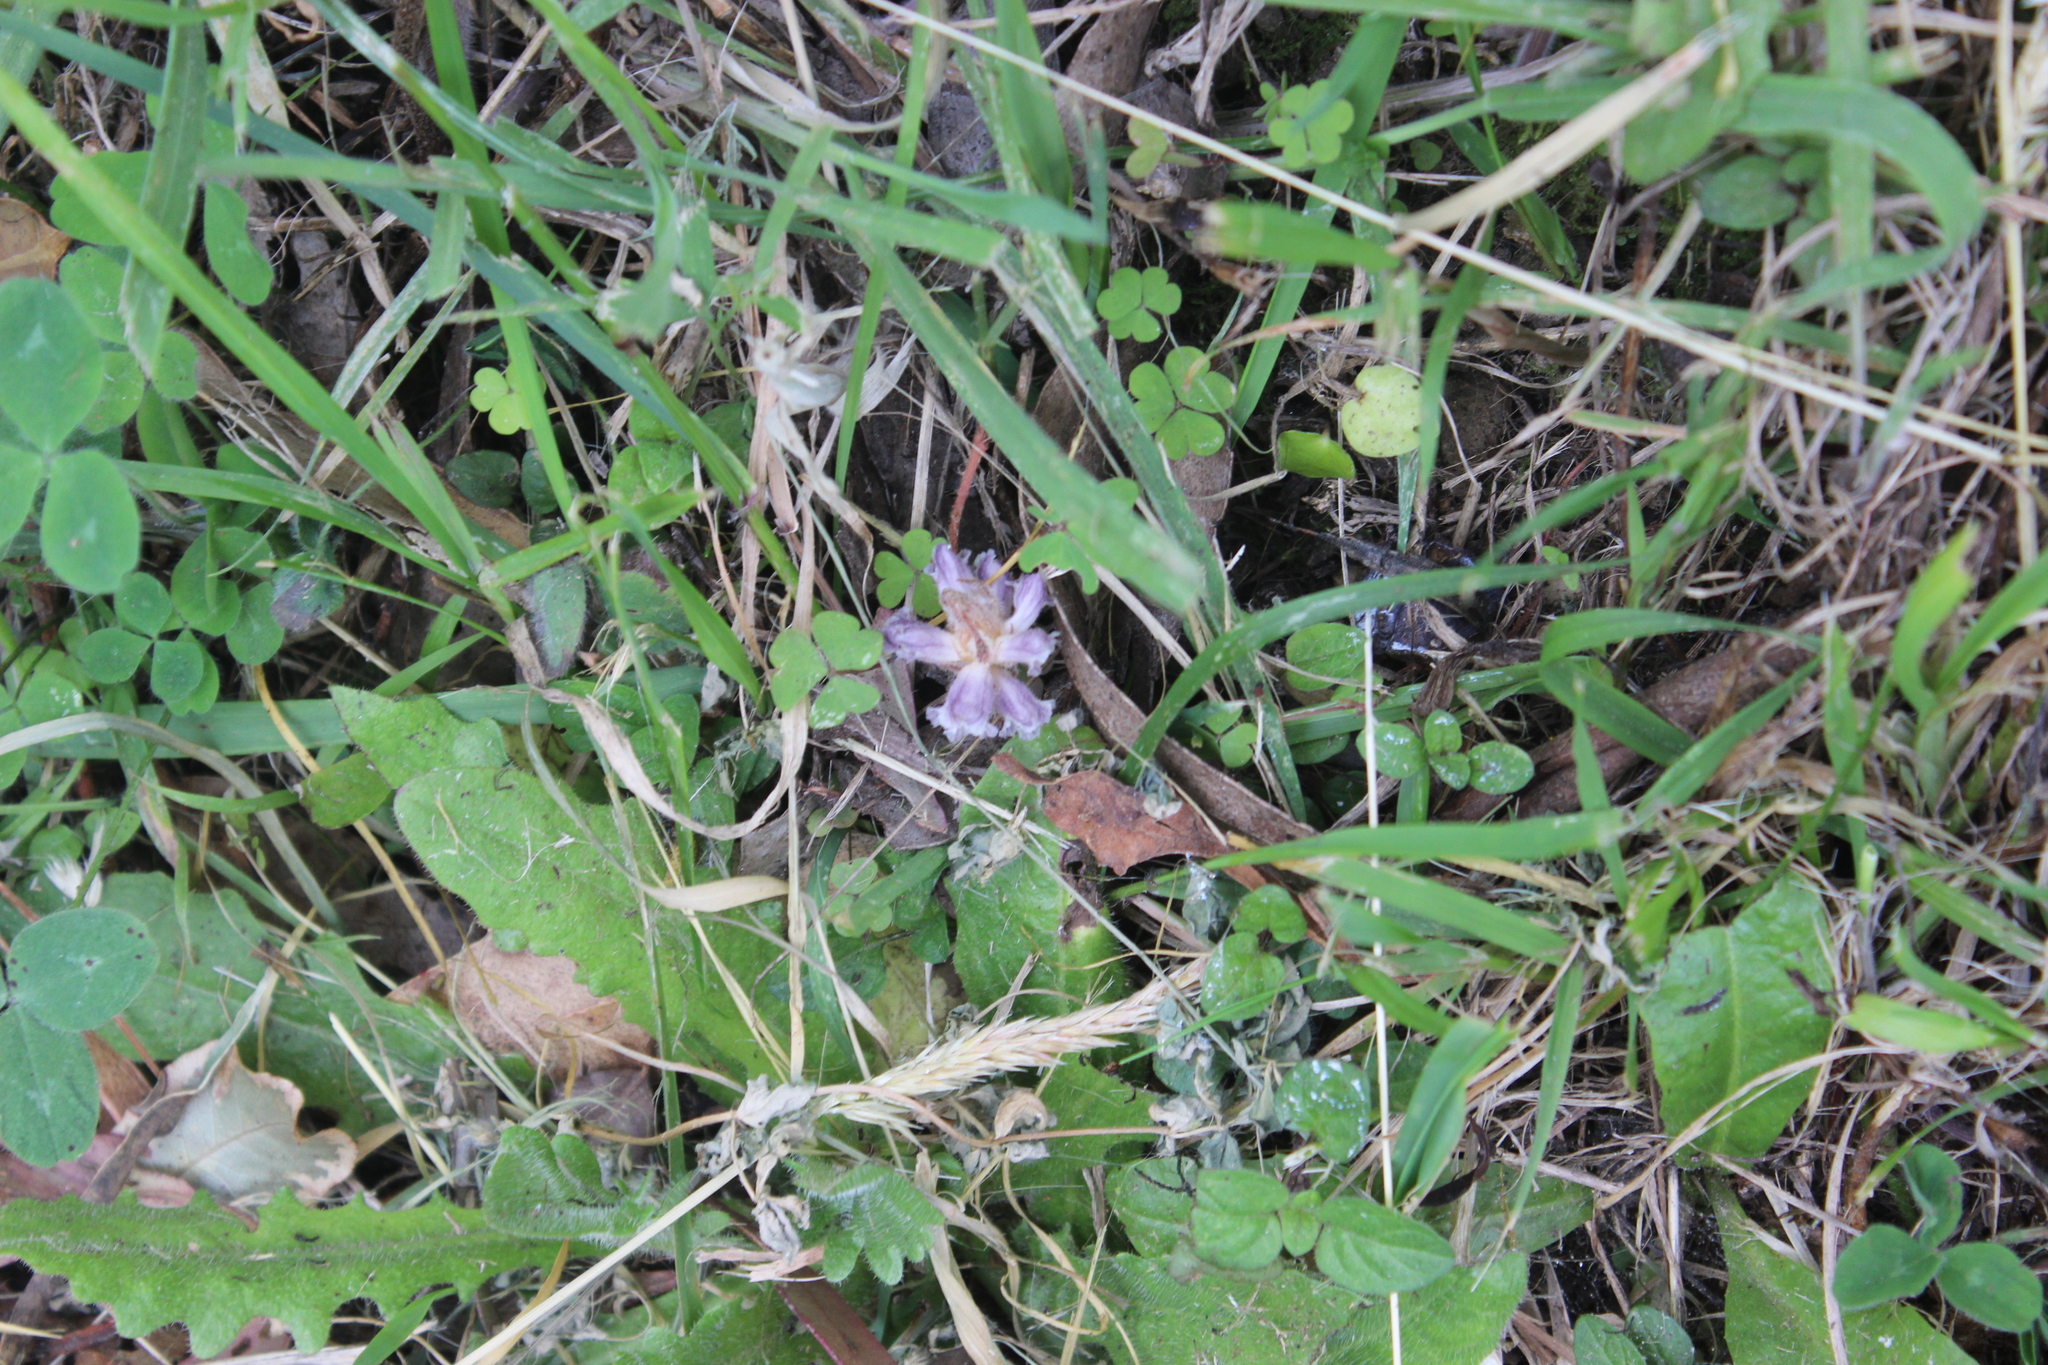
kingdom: Plantae
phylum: Tracheophyta
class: Magnoliopsida
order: Lamiales
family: Orobanchaceae
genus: Orobanche
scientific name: Orobanche minor
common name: Common broomrape
